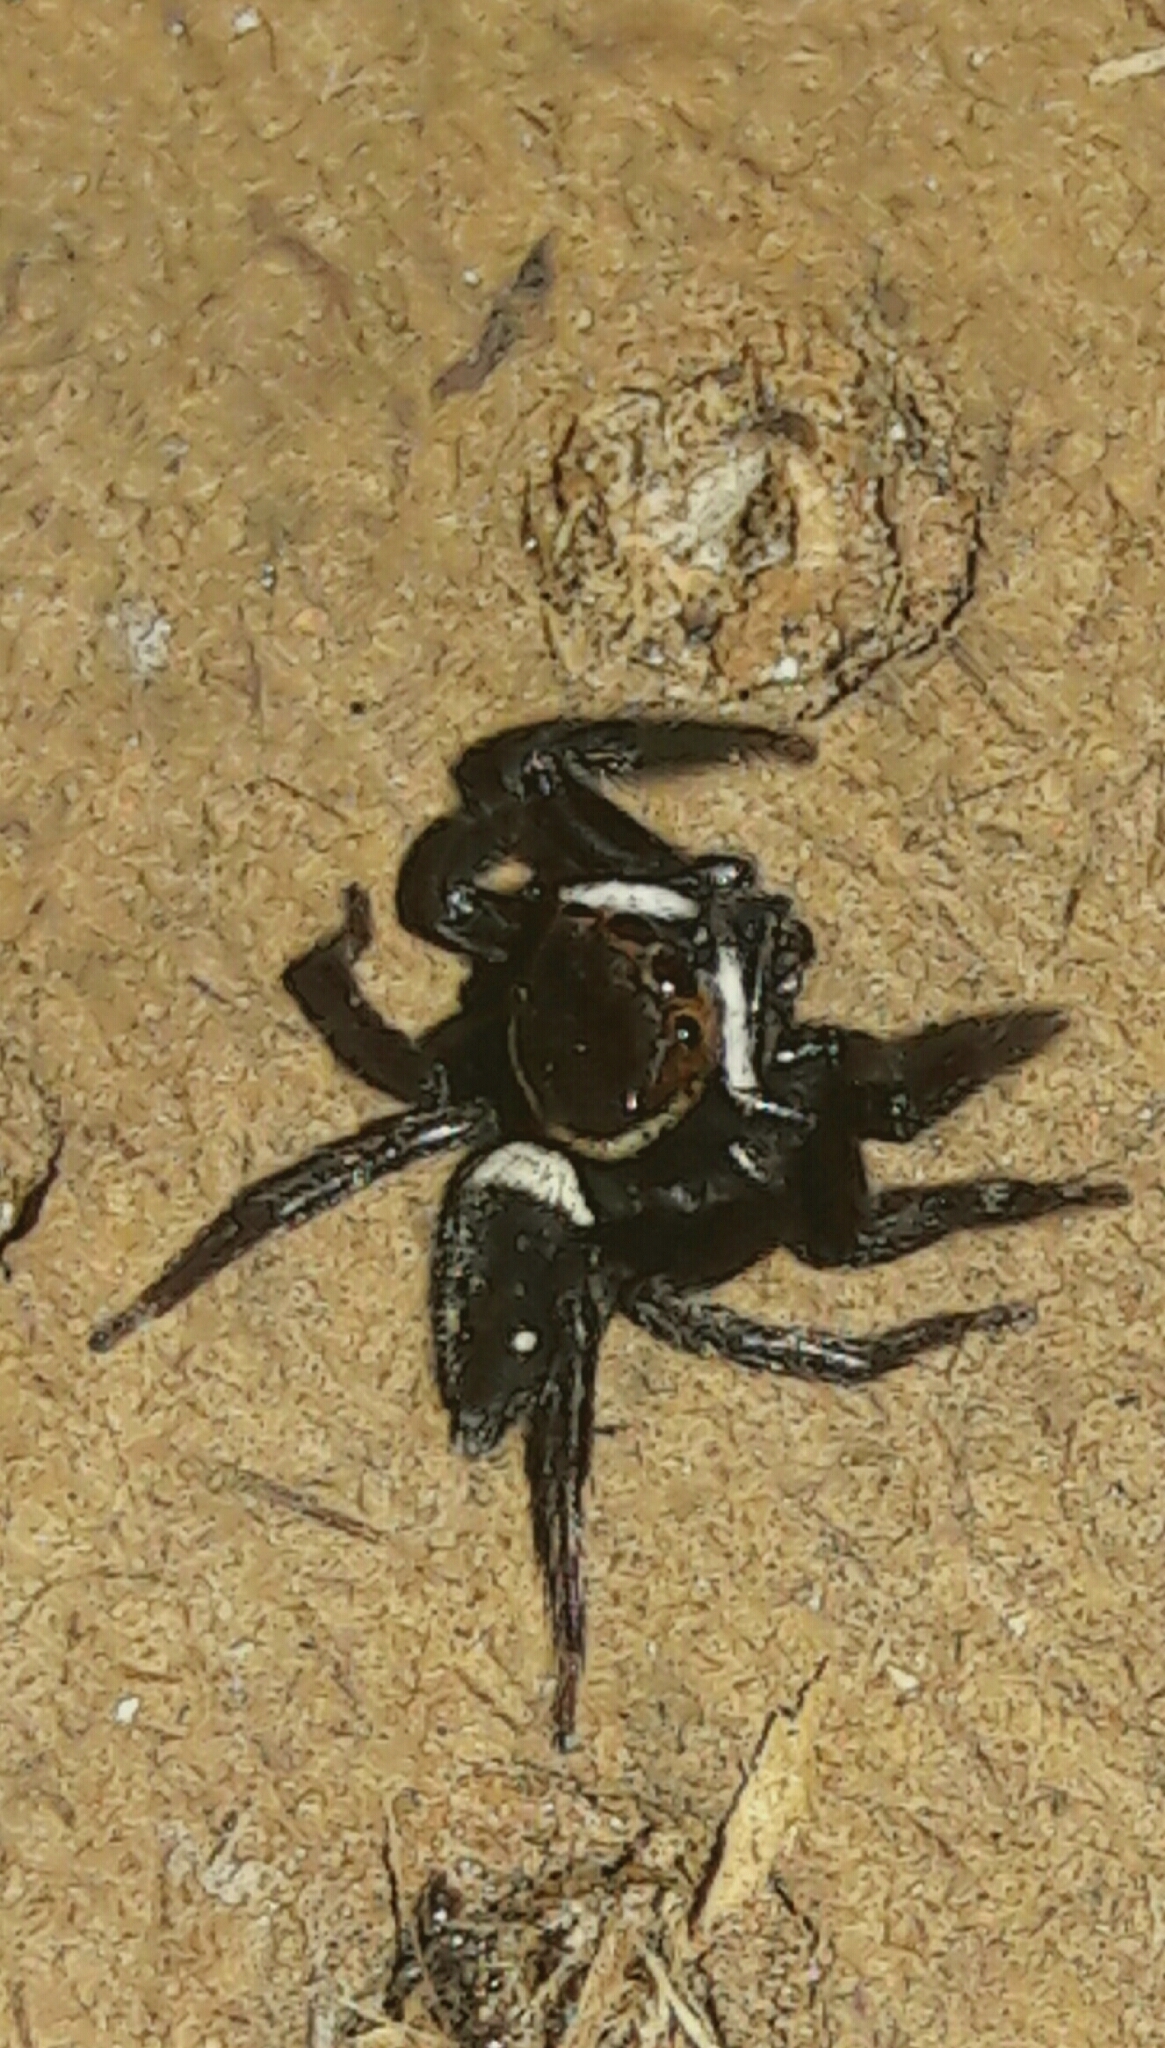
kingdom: Animalia
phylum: Arthropoda
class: Arachnida
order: Araneae
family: Salticidae
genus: Hasarius
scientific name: Hasarius adansoni
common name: Jumping spider
